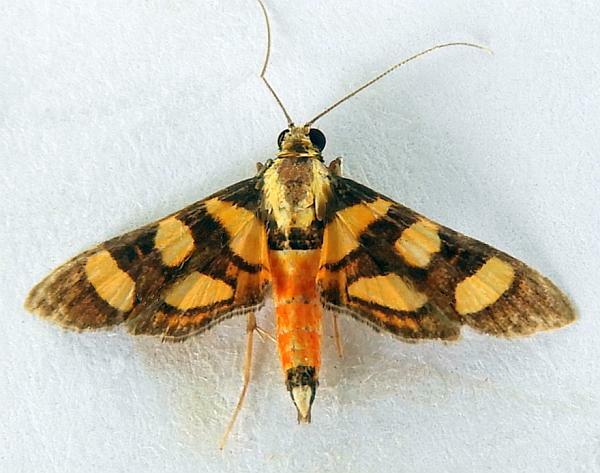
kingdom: Animalia
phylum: Arthropoda
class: Insecta
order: Lepidoptera
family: Crambidae
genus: Syngamia
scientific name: Syngamia florella
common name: Orange-spotted flower moth
